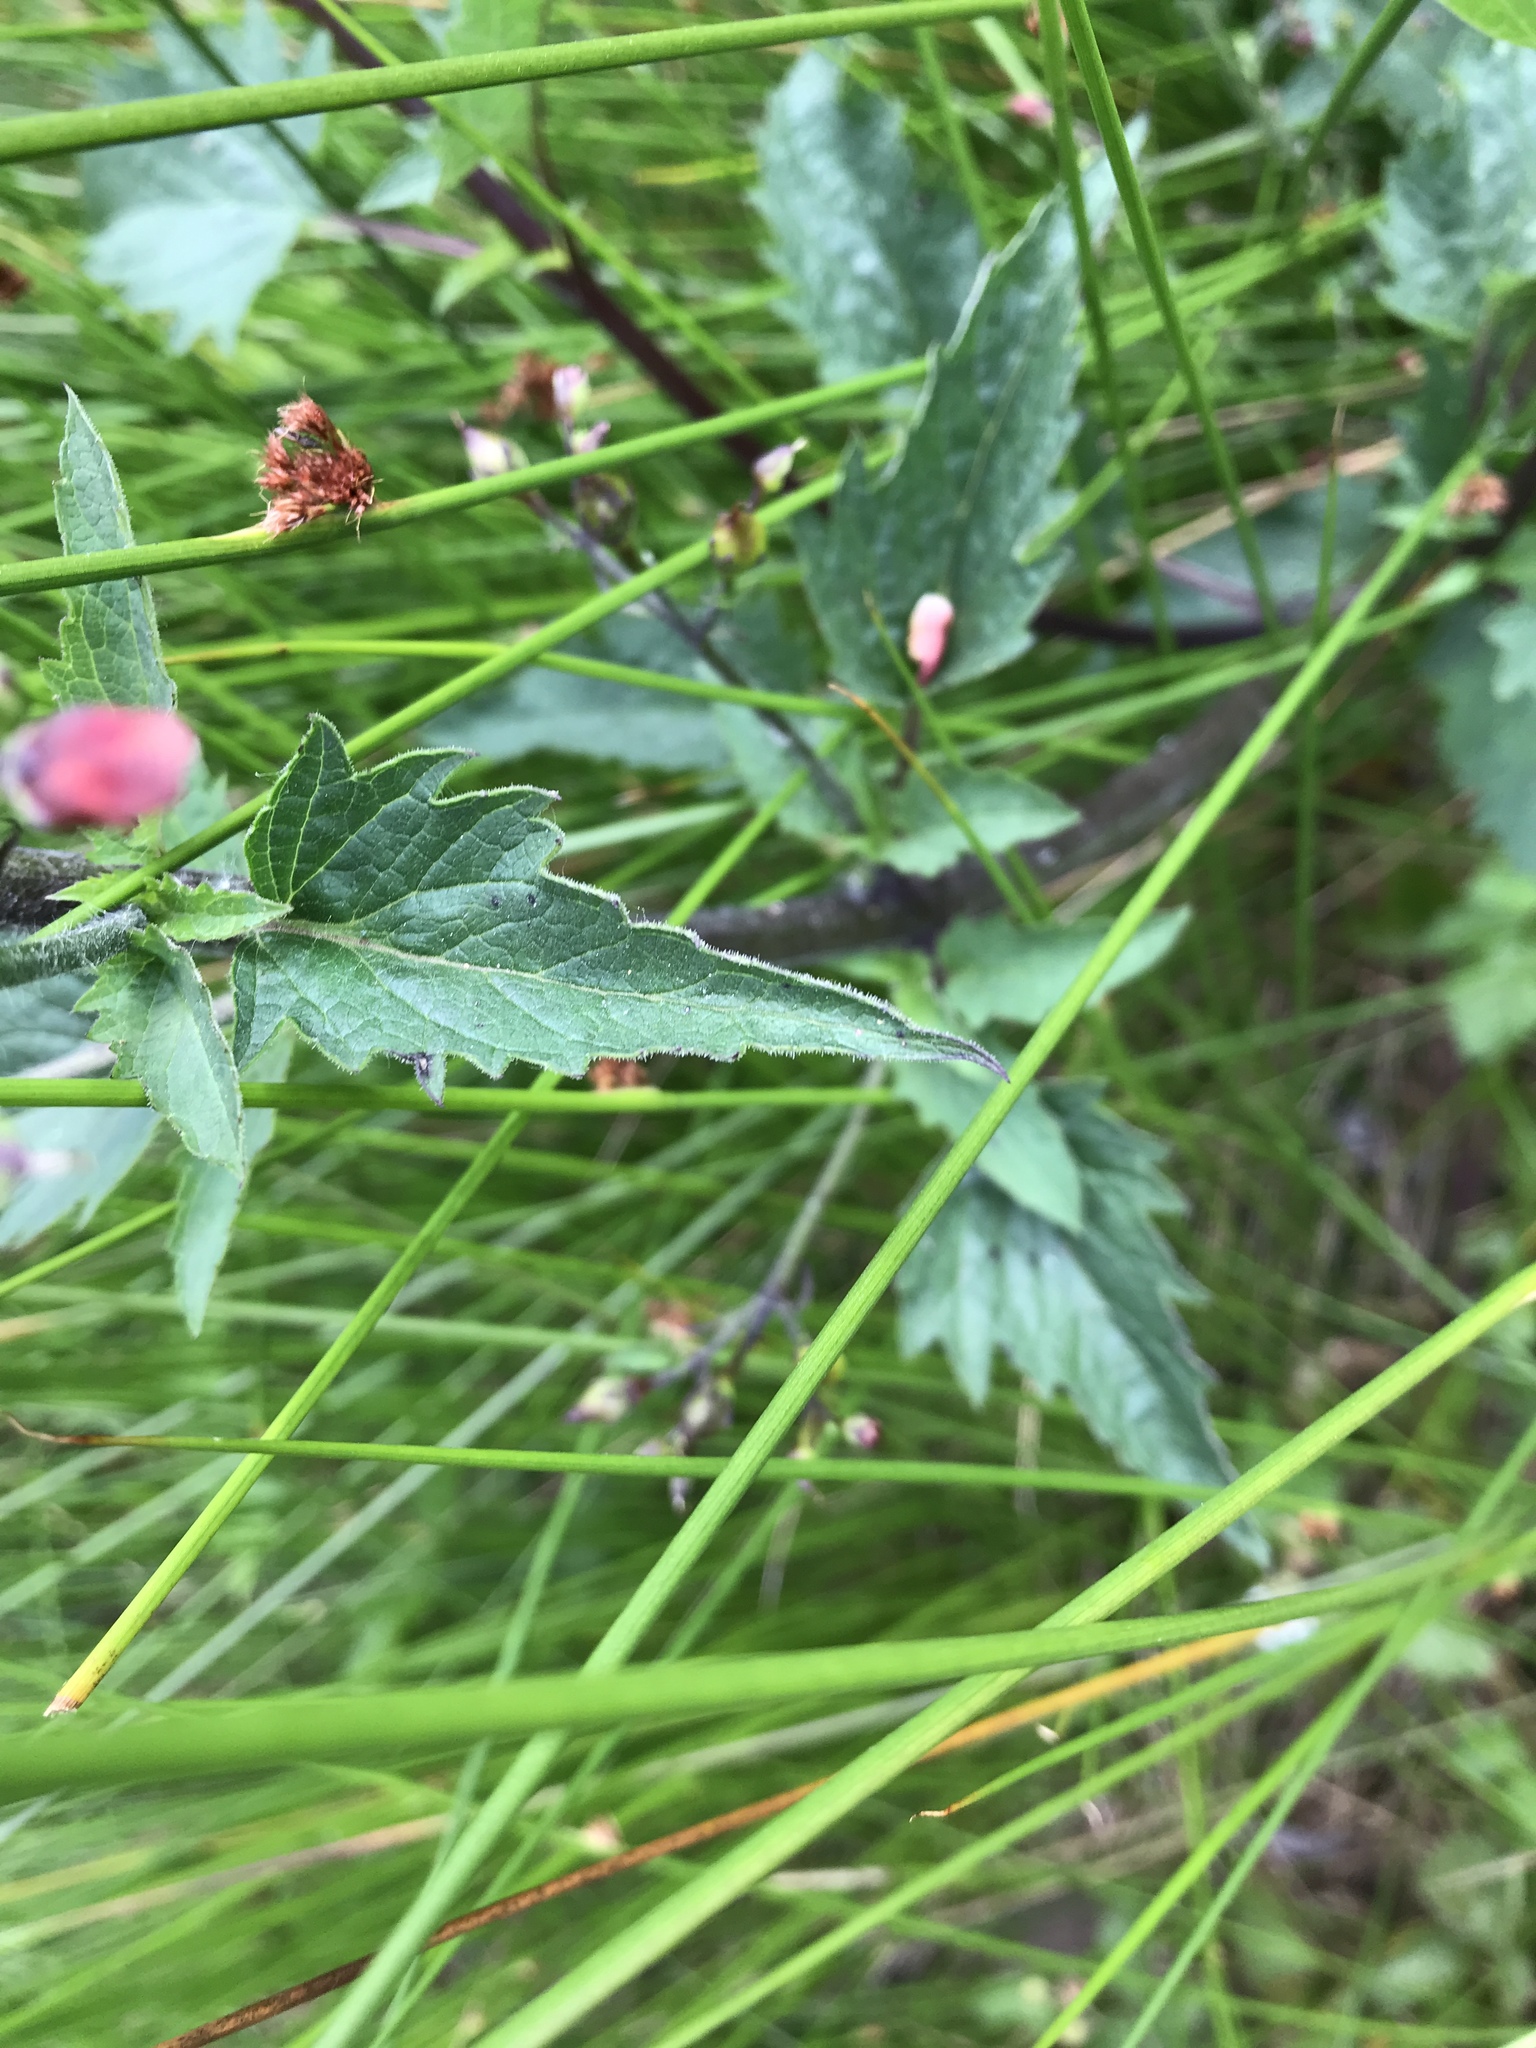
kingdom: Plantae
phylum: Tracheophyta
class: Magnoliopsida
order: Lamiales
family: Scrophulariaceae
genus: Scrophularia
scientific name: Scrophularia californica
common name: California figwort
